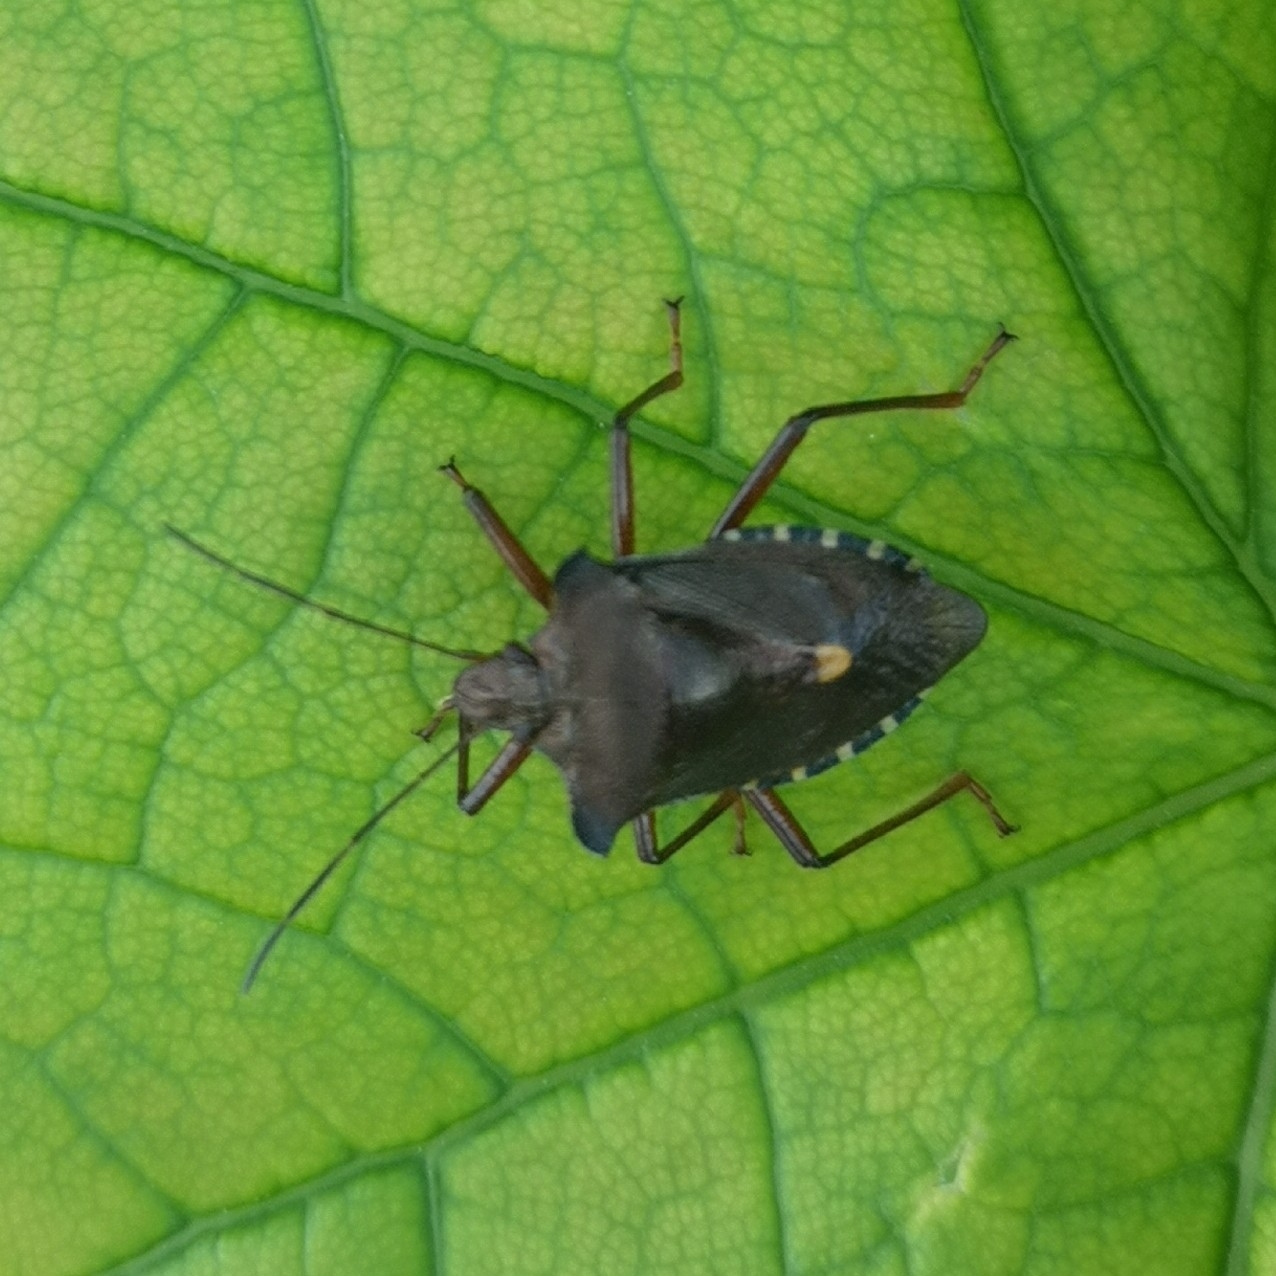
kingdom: Animalia
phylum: Arthropoda
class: Insecta
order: Hemiptera
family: Pentatomidae
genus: Pentatoma
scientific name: Pentatoma rufipes
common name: Forest bug
